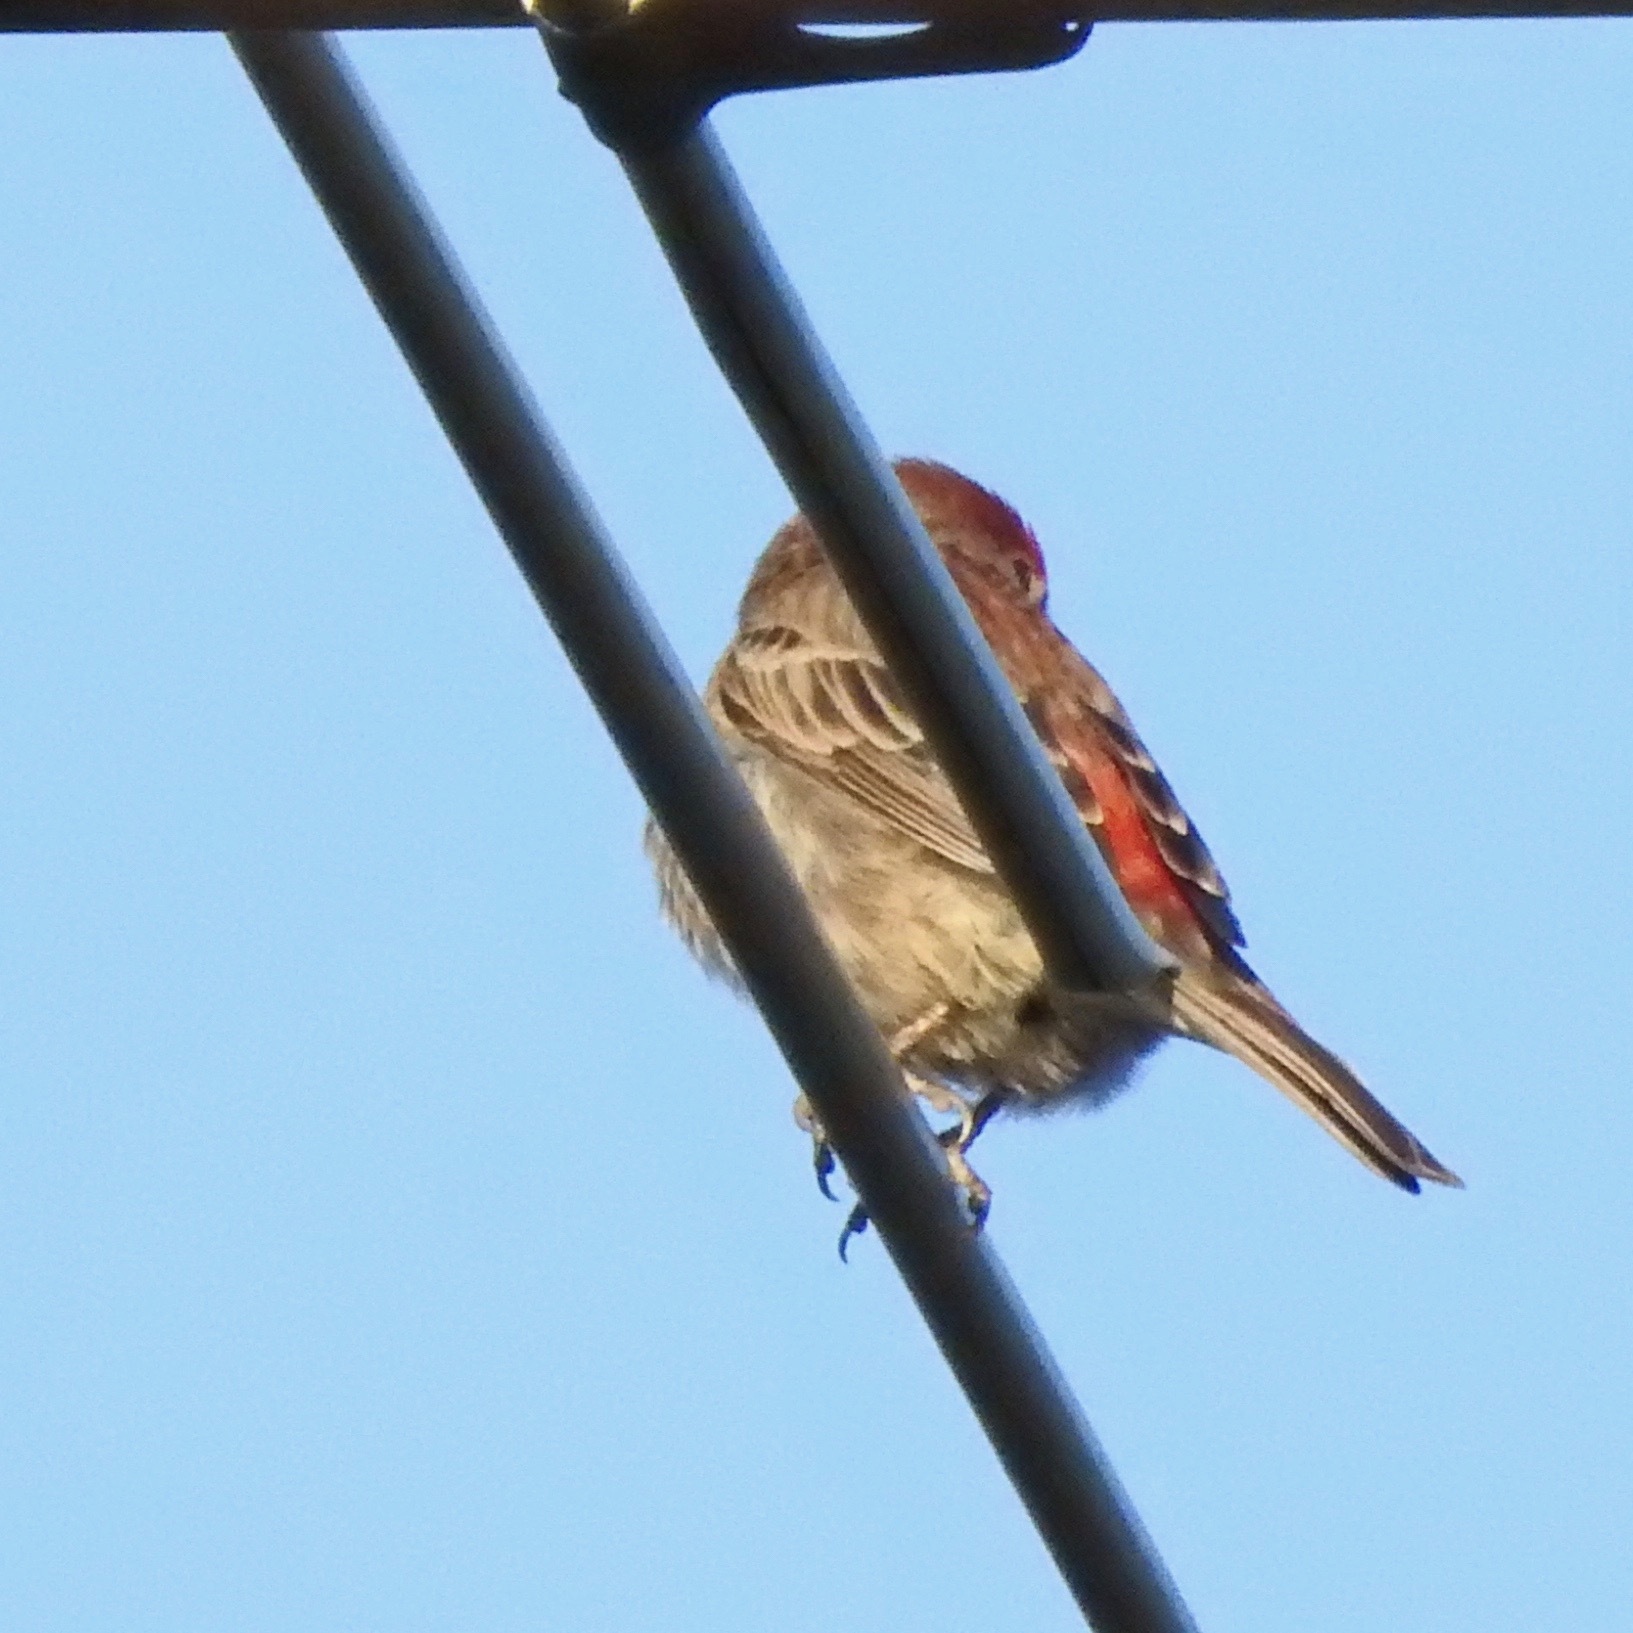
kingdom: Animalia
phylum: Chordata
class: Aves
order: Passeriformes
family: Fringillidae
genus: Haemorhous
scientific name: Haemorhous mexicanus
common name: House finch
